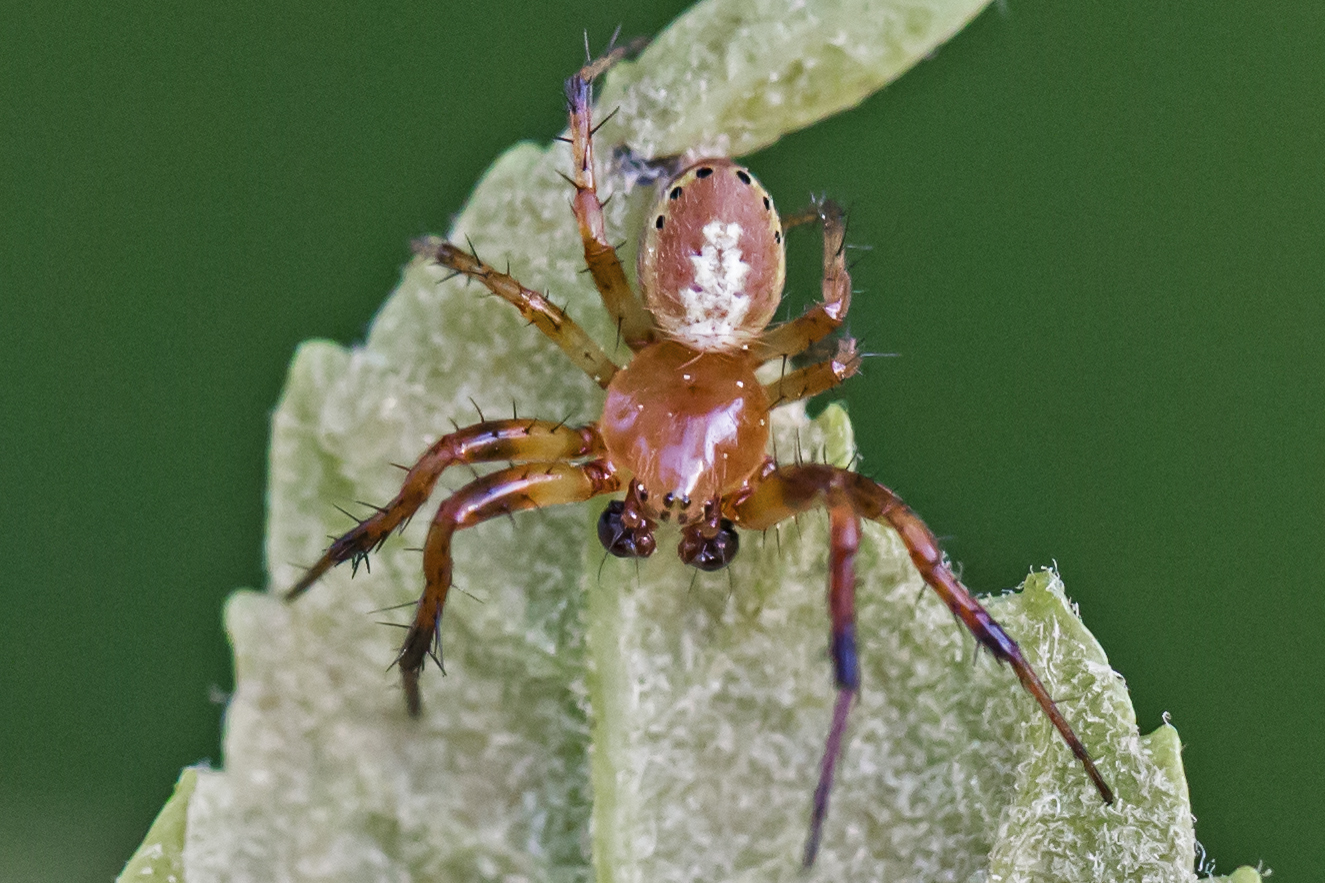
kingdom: Animalia
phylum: Arthropoda
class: Arachnida
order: Araneae
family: Araneidae
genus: Araniella
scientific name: Araniella displicata
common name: Sixspotted orb weaver
